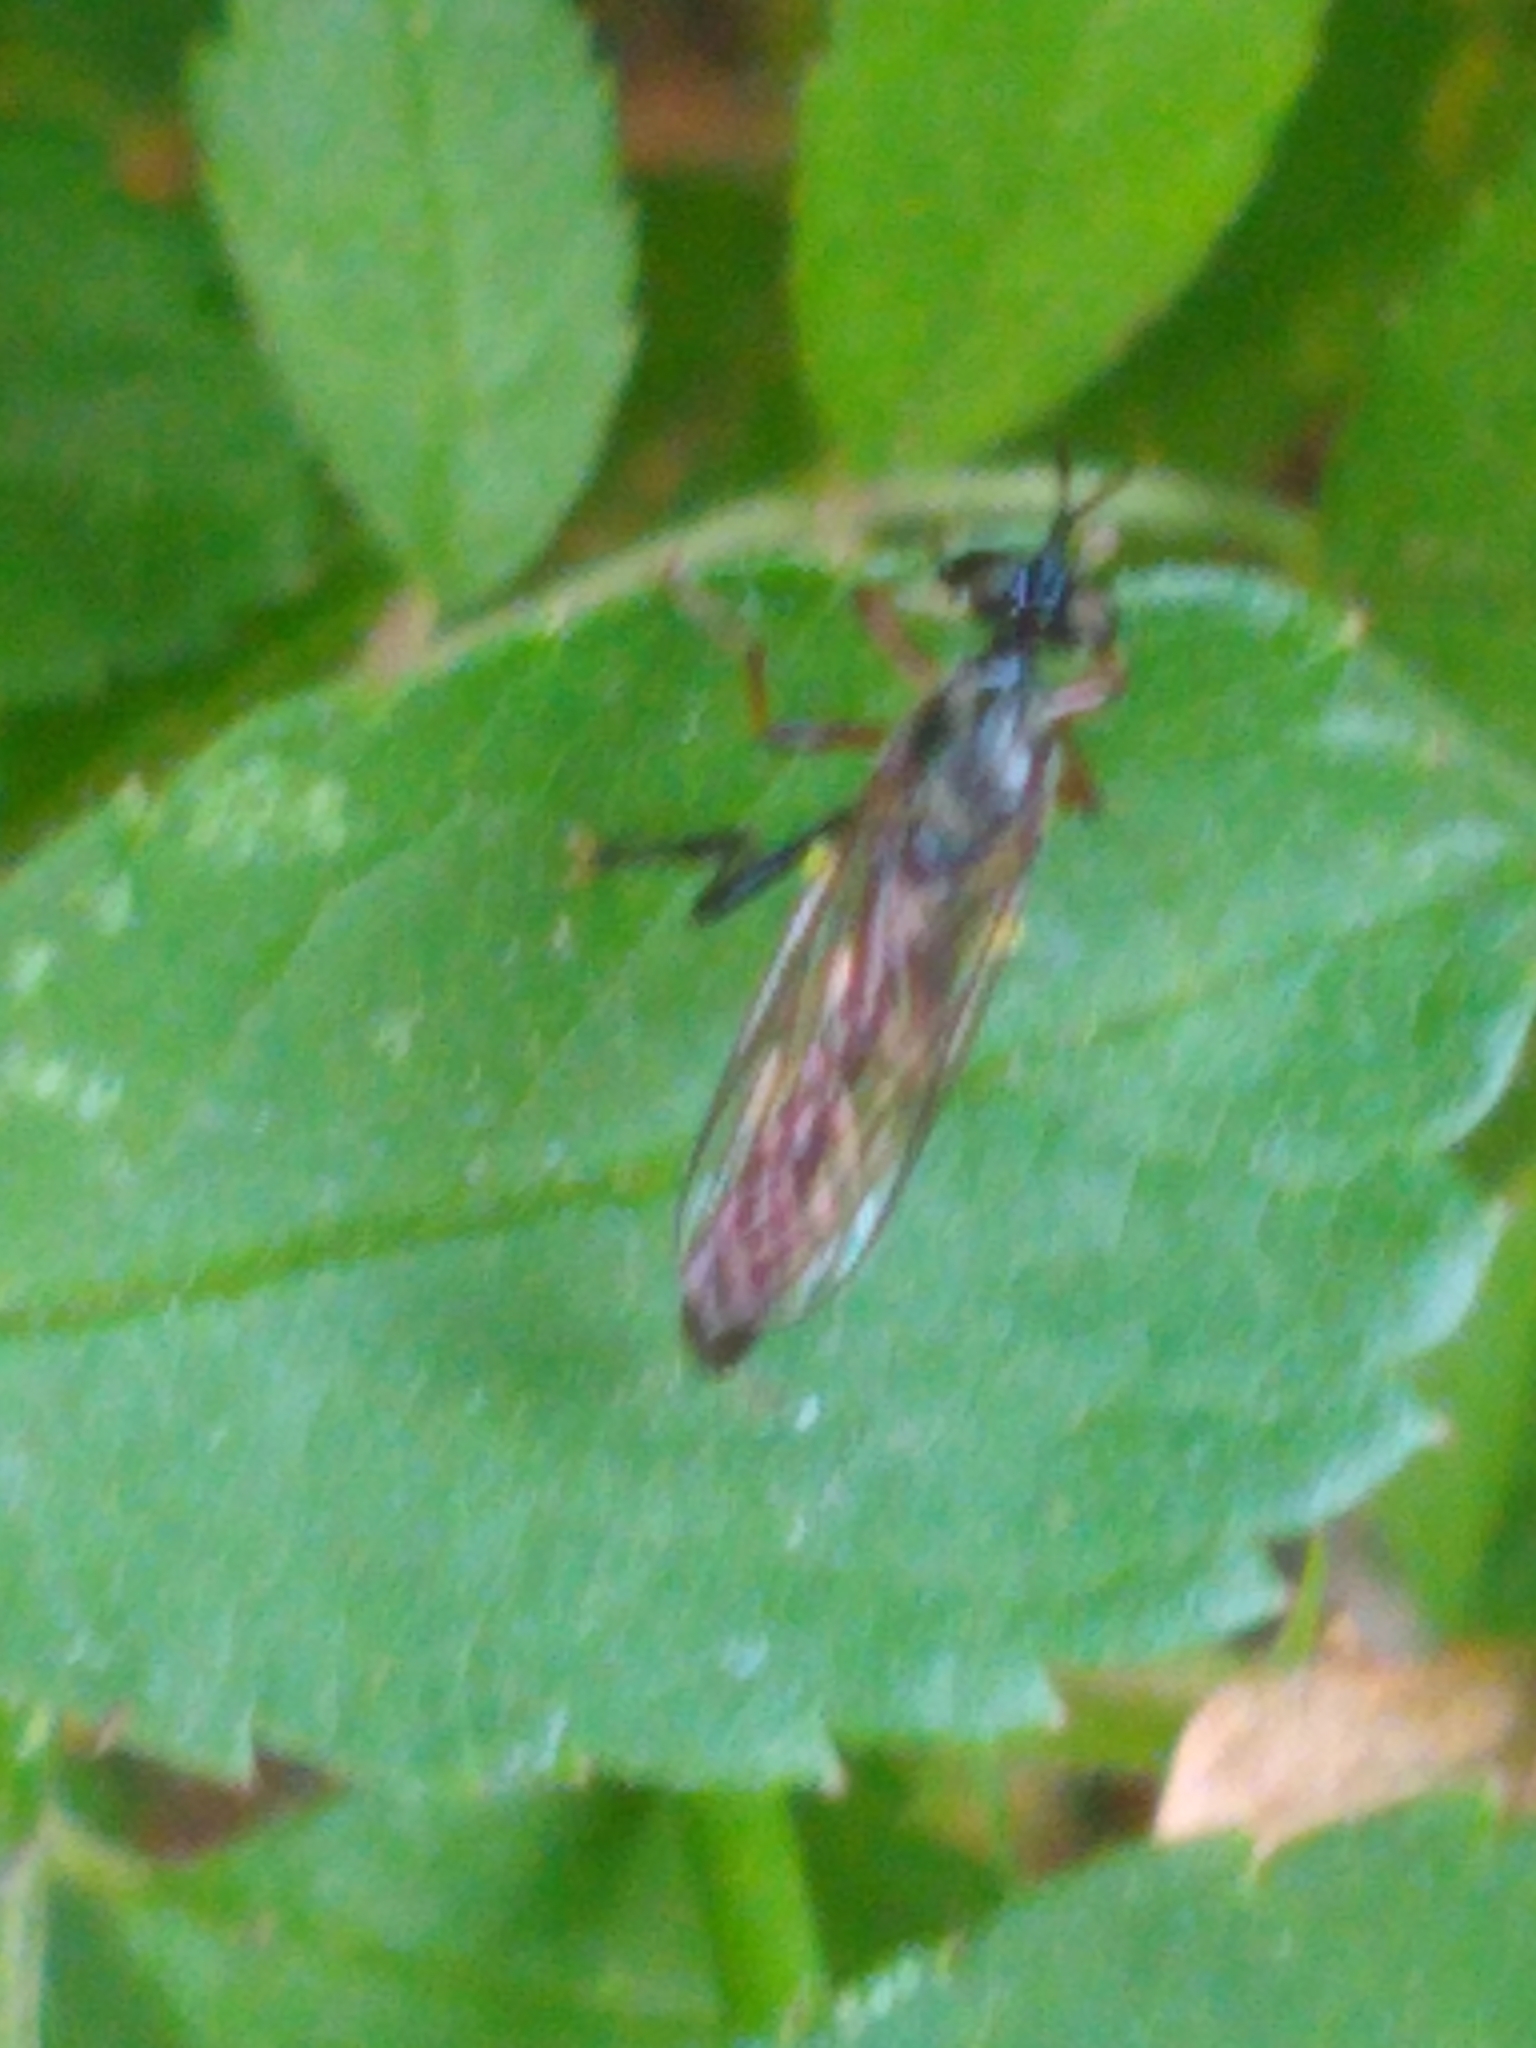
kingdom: Animalia
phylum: Arthropoda
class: Insecta
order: Diptera
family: Asilidae
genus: Dioctria
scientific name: Dioctria hyalipennis
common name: Stripe-legged robberfly
